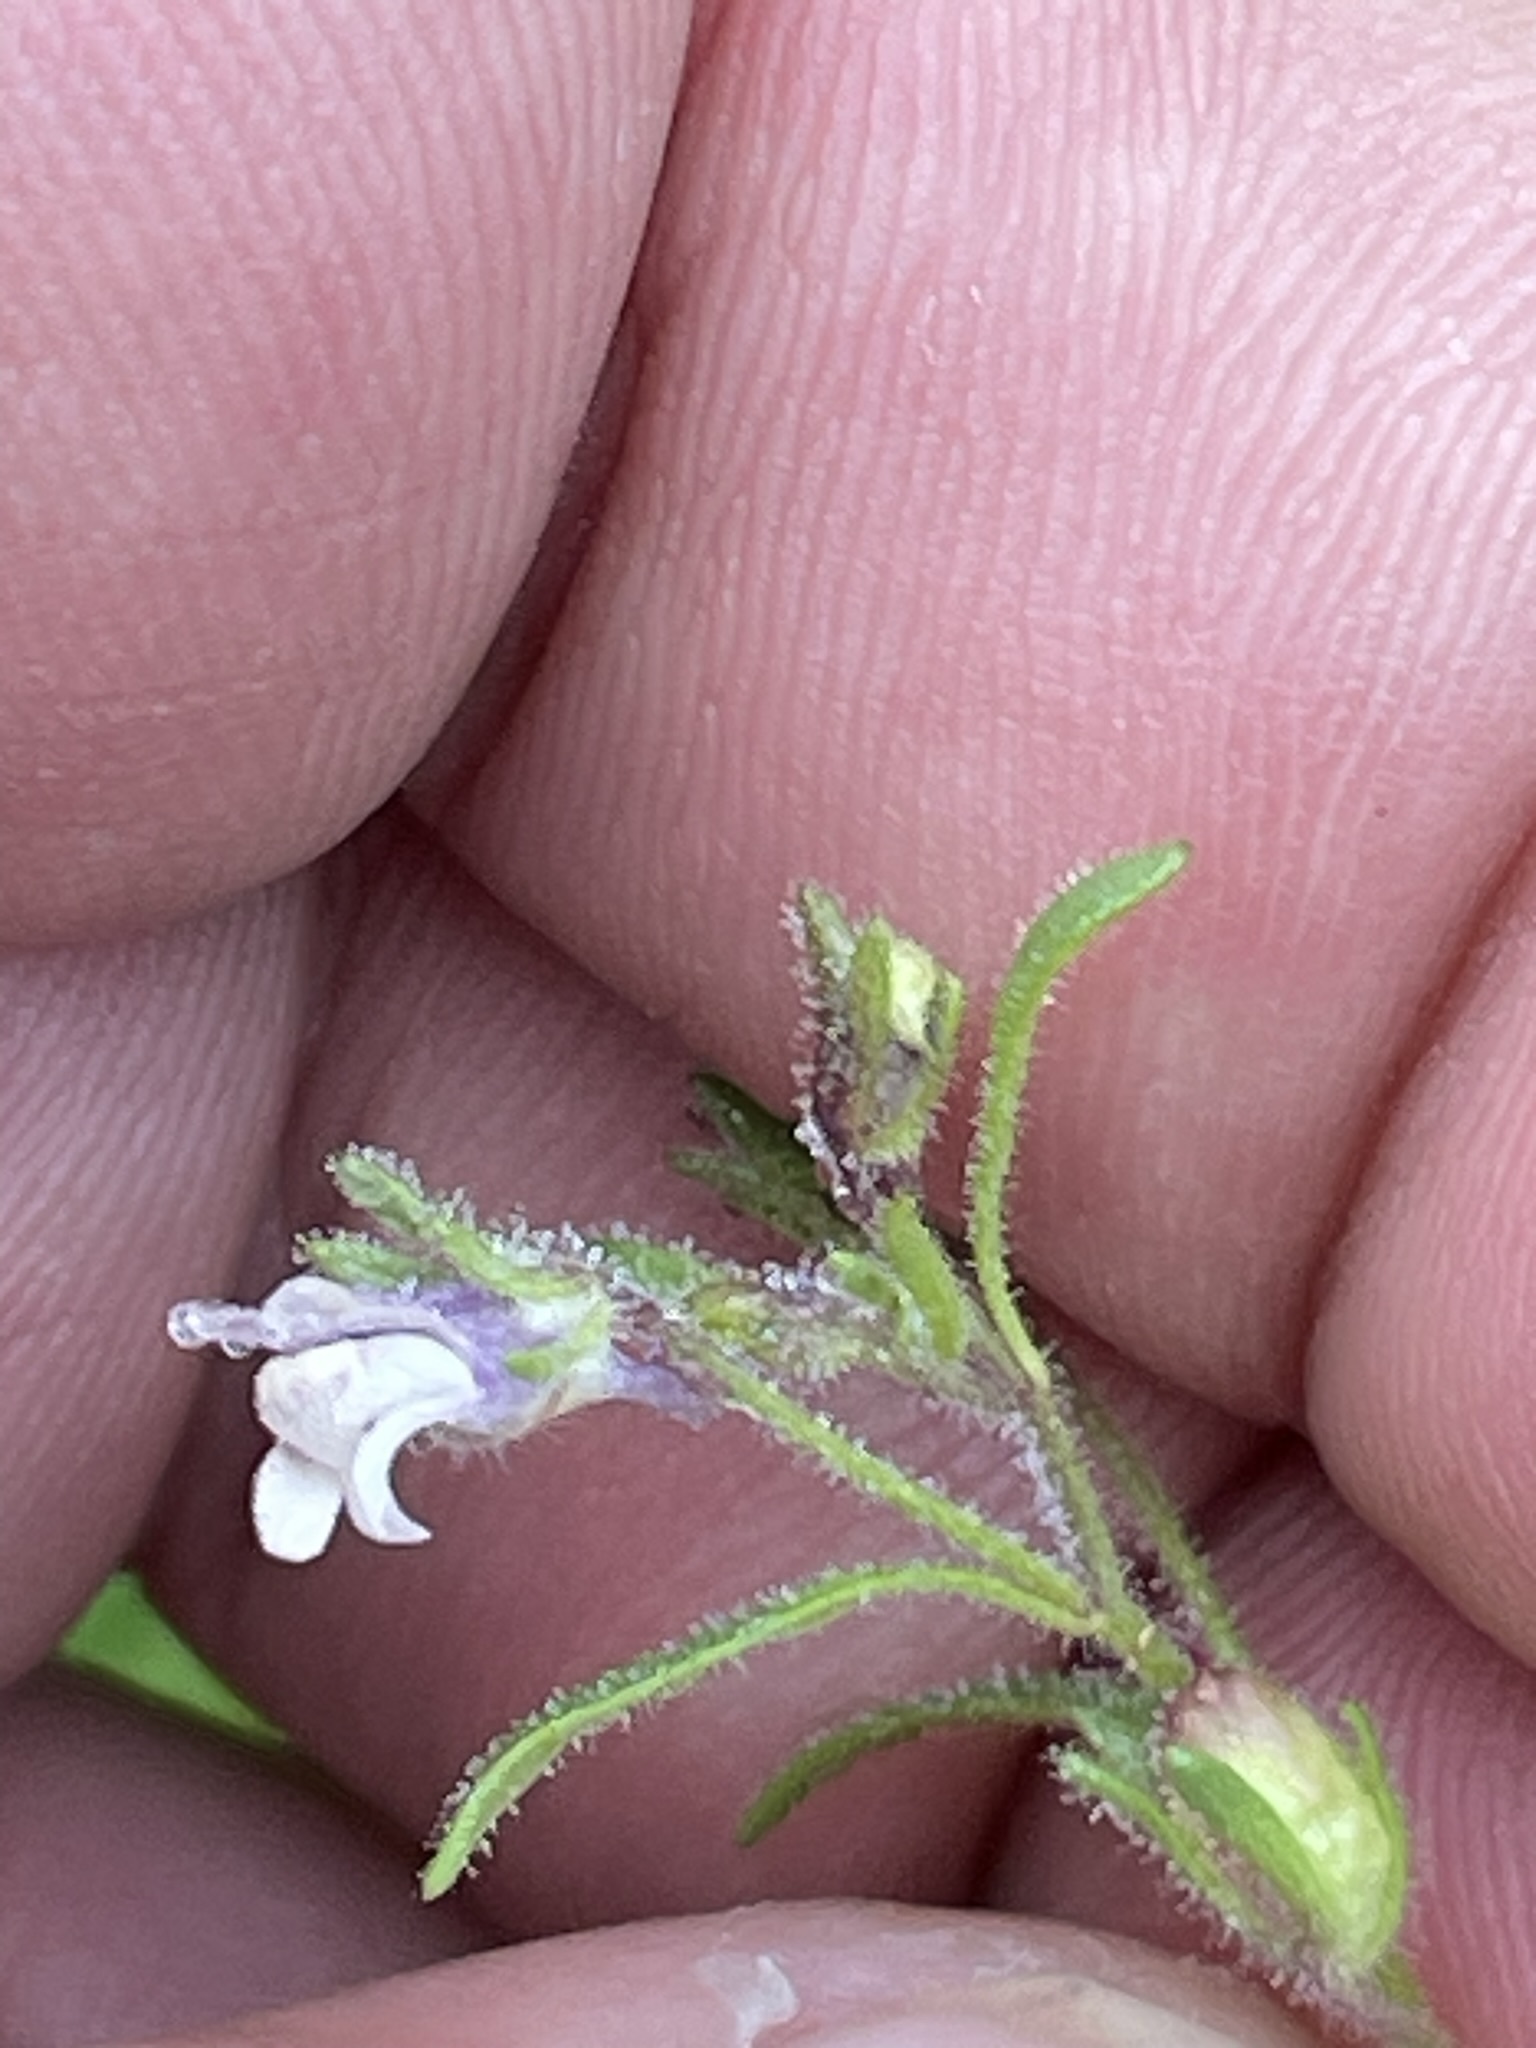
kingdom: Plantae
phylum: Tracheophyta
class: Magnoliopsida
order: Lamiales
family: Plantaginaceae
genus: Chaenorhinum
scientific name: Chaenorhinum minus
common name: Dwarf snapdragon
